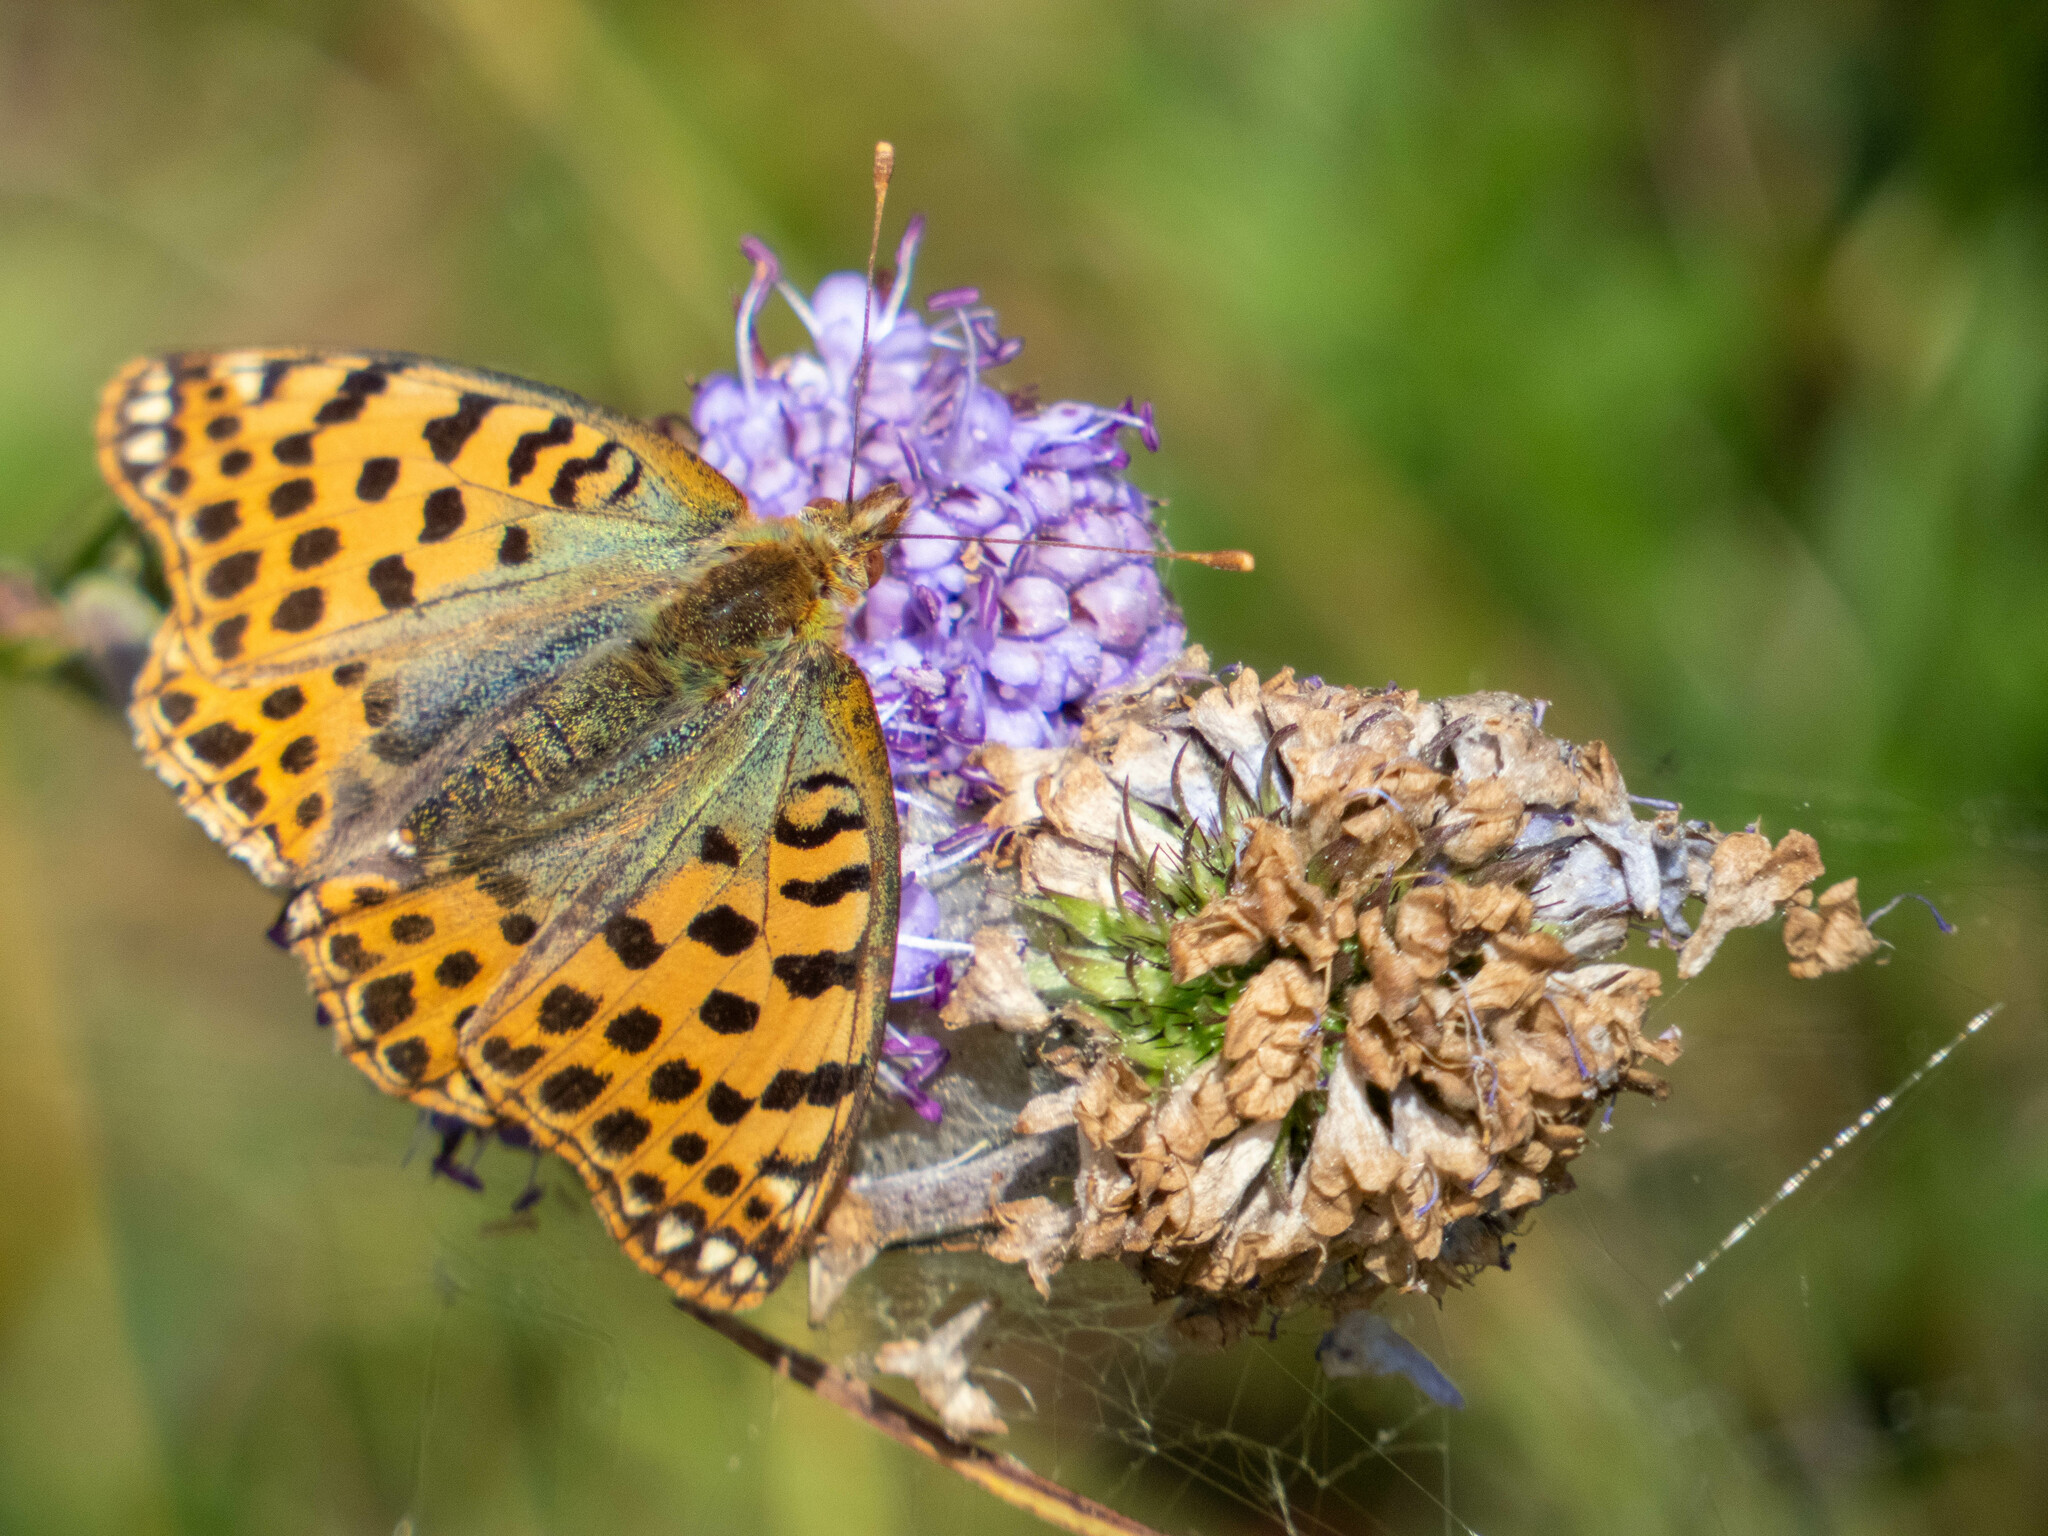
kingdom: Animalia
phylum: Arthropoda
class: Insecta
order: Lepidoptera
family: Nymphalidae
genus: Issoria
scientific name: Issoria lathonia
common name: Queen of spain fritillary
